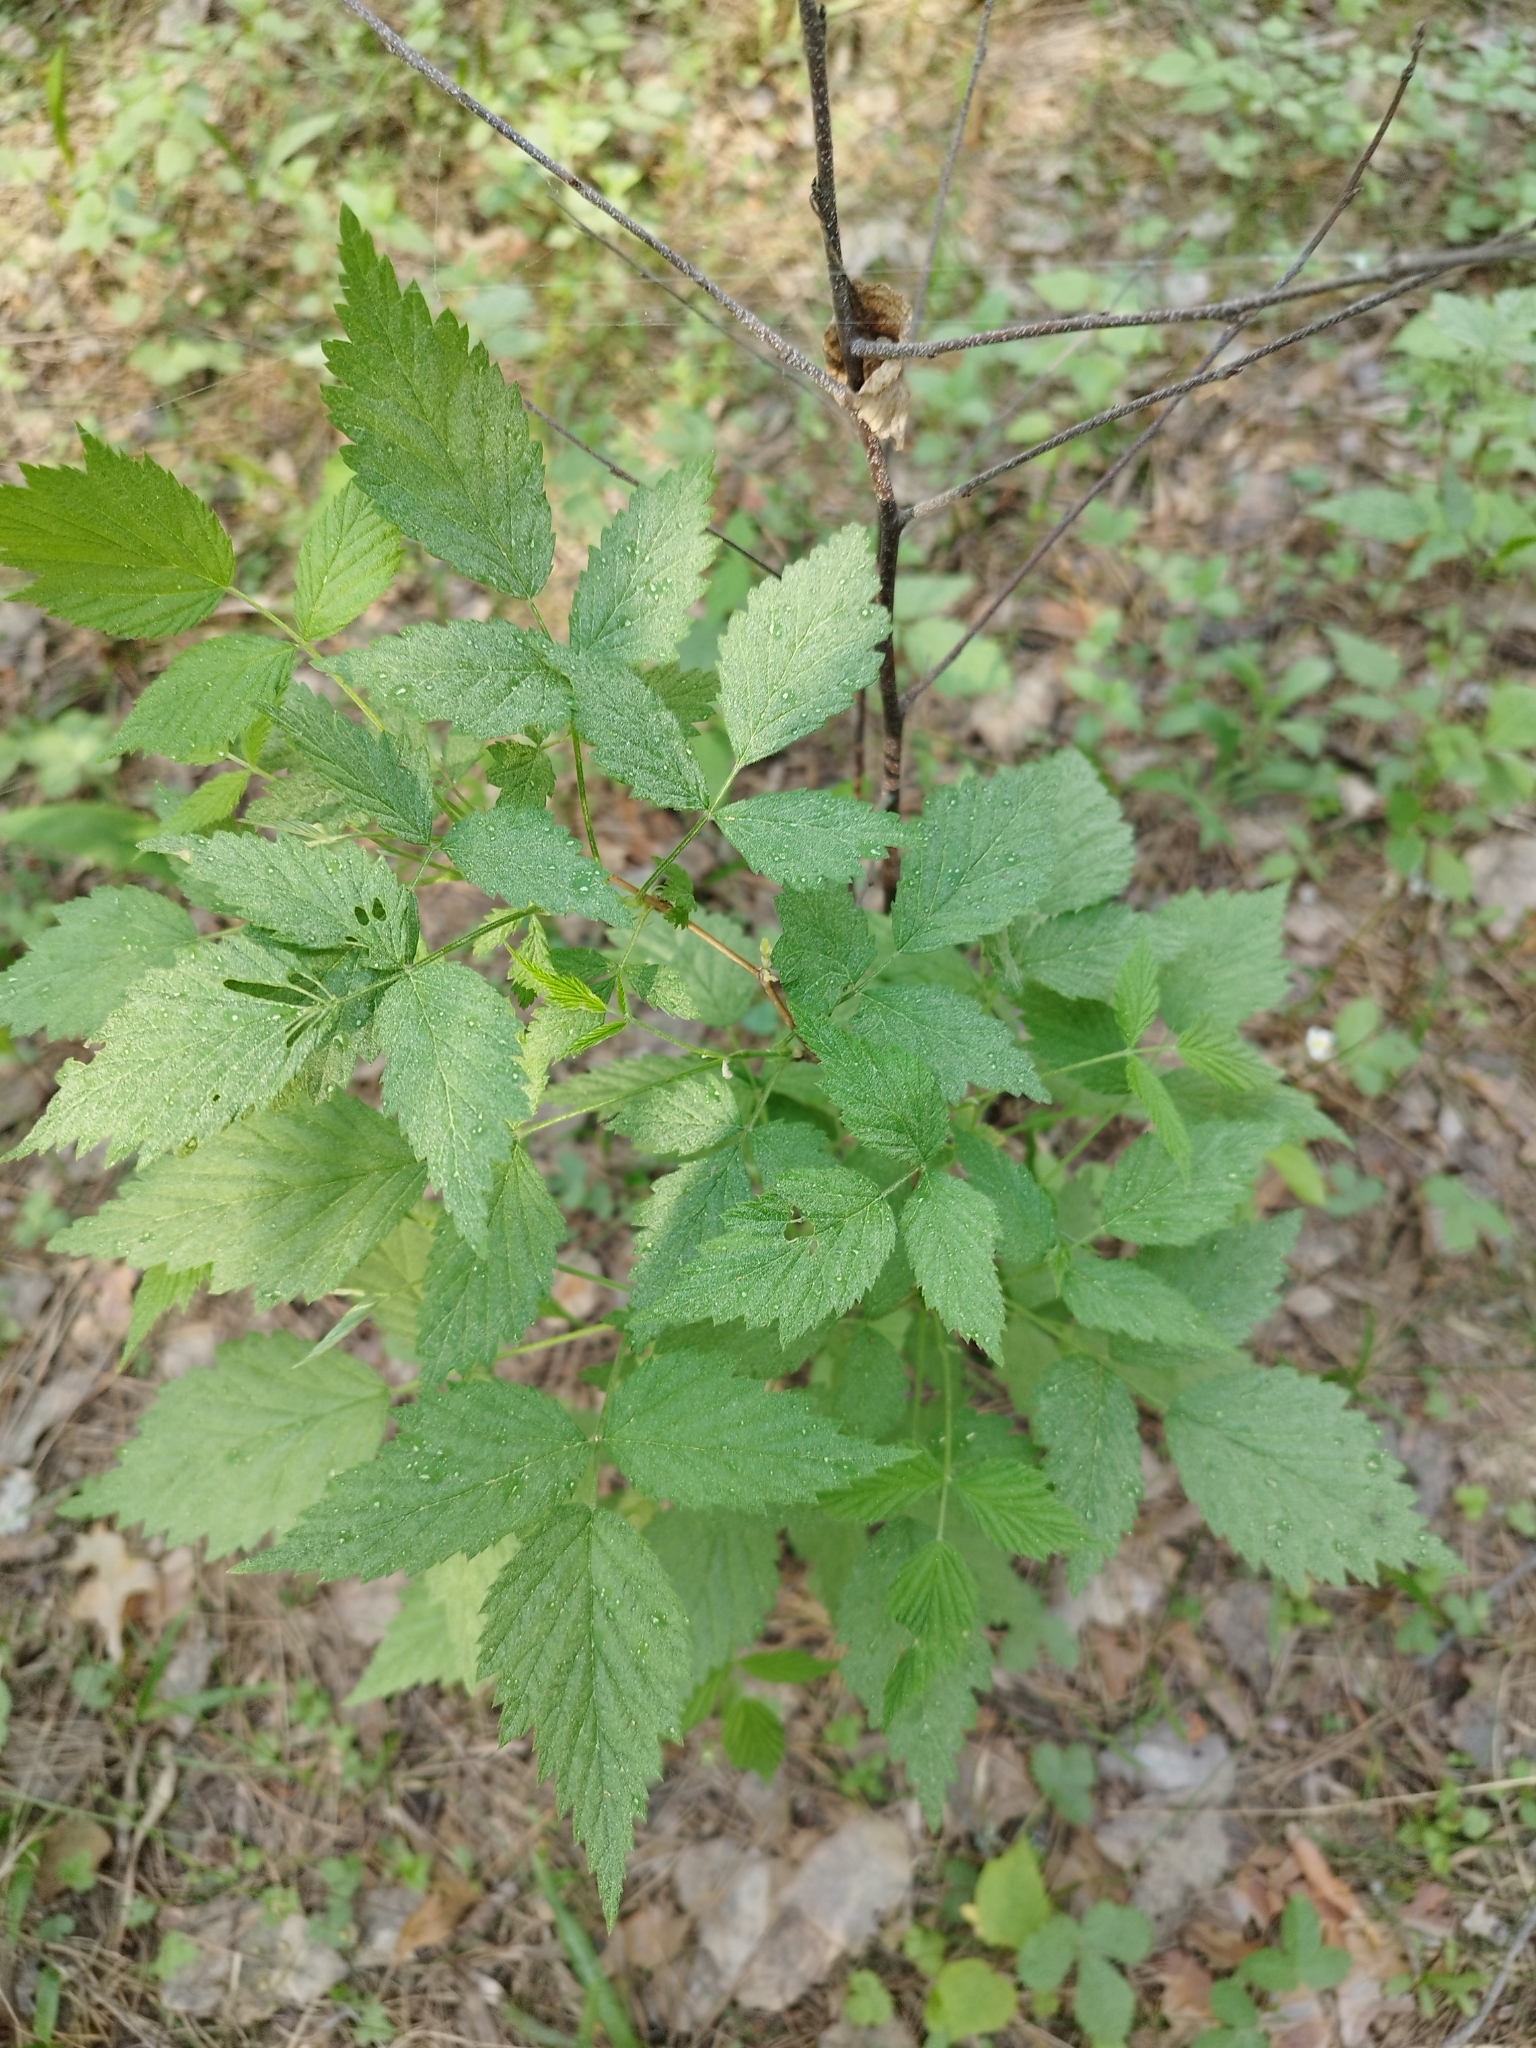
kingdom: Plantae
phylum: Tracheophyta
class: Magnoliopsida
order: Rosales
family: Rosaceae
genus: Rubus
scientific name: Rubus idaeus
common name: Raspberry
